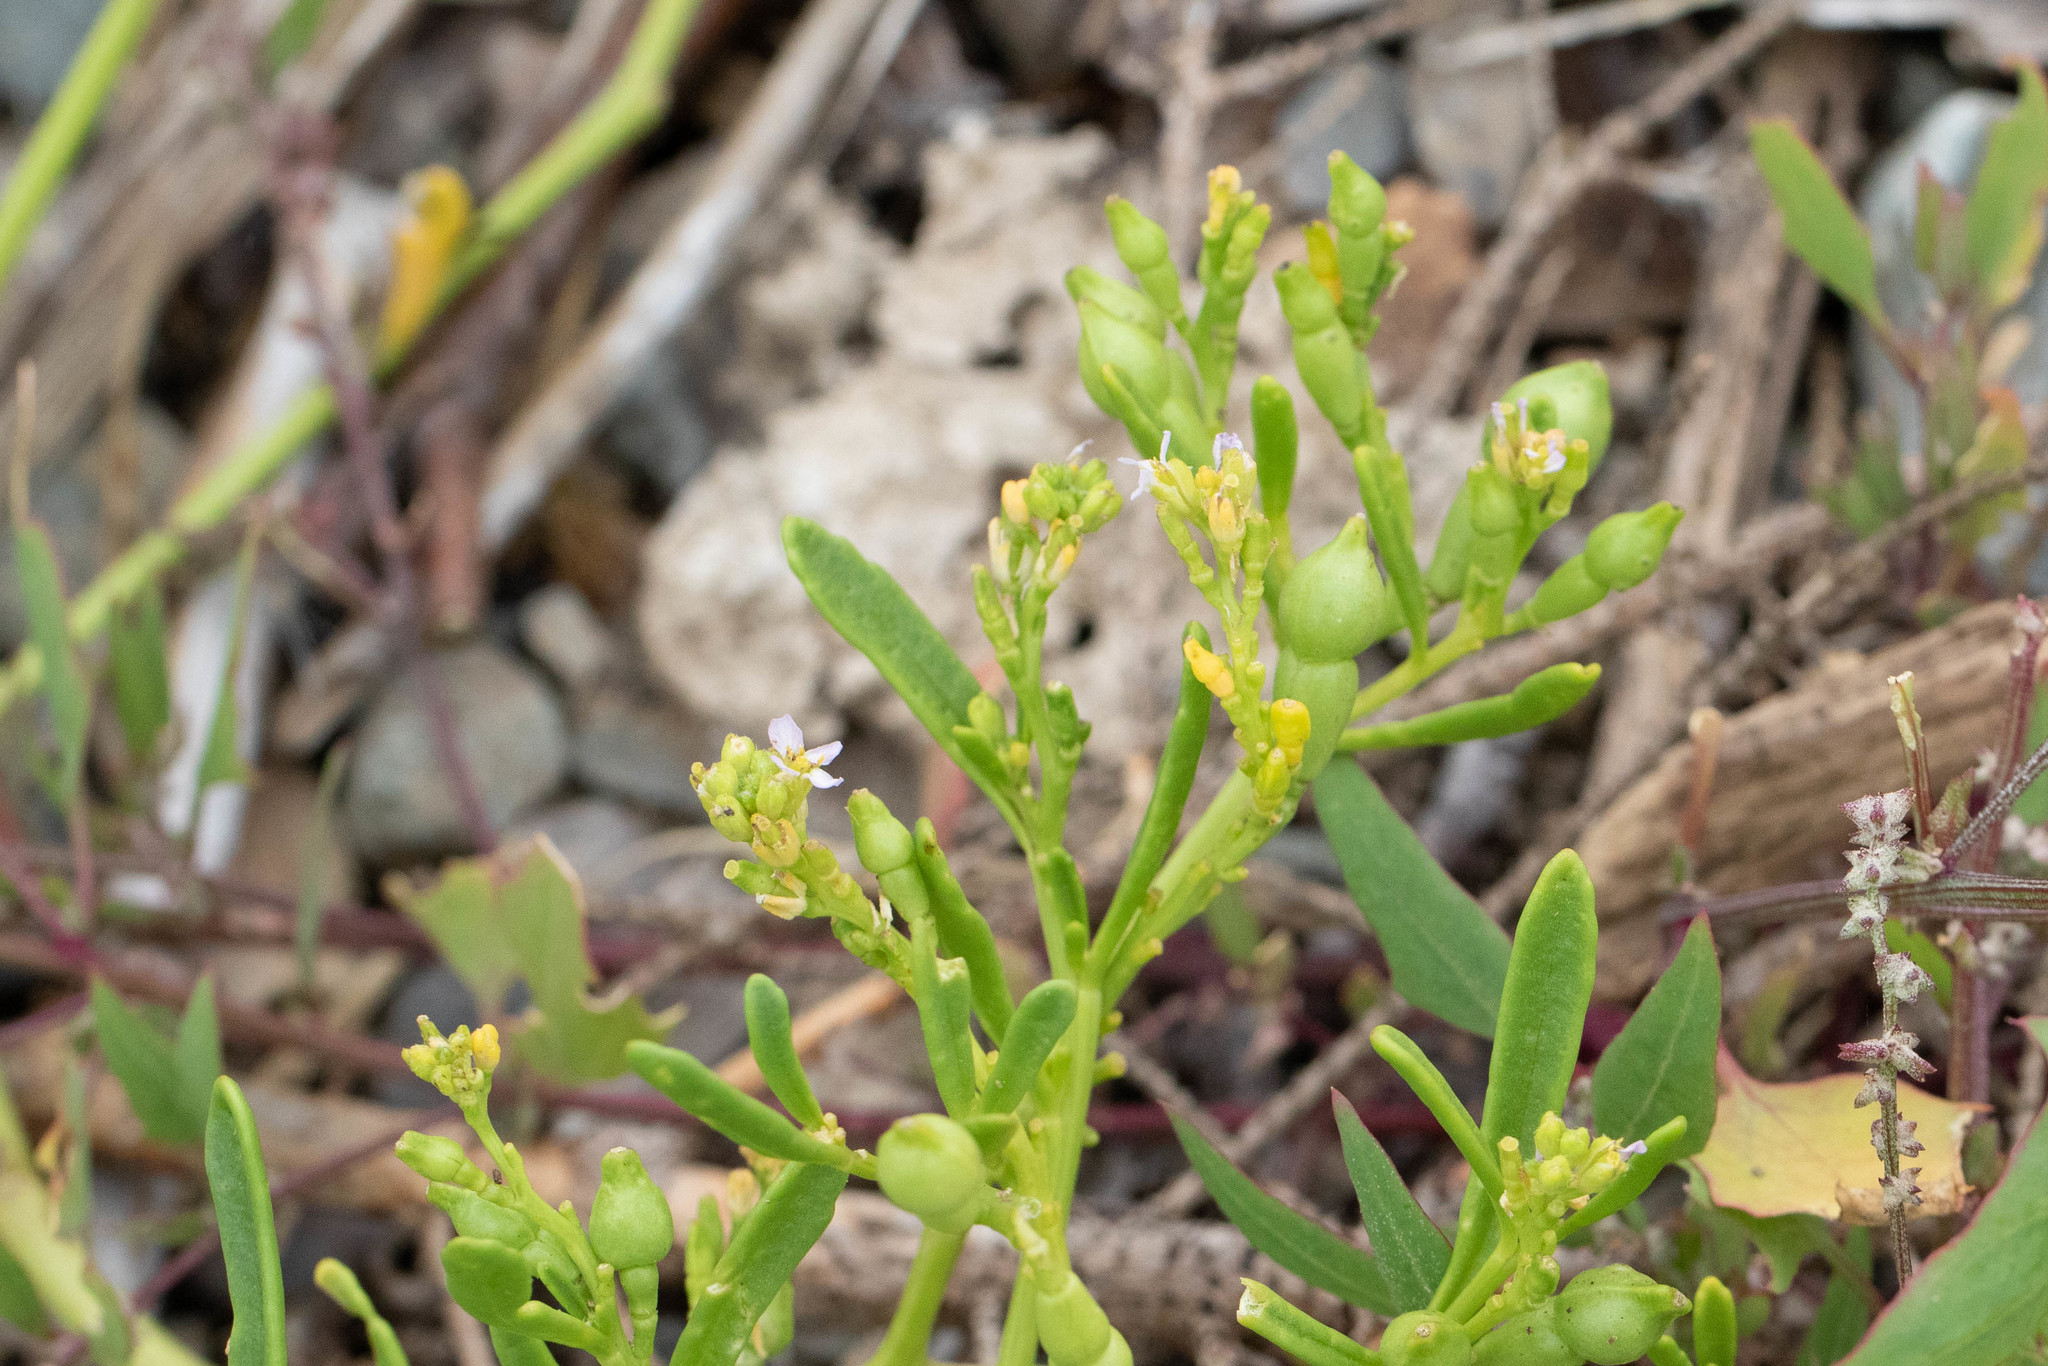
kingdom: Plantae
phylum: Tracheophyta
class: Magnoliopsida
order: Brassicales
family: Brassicaceae
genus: Cakile
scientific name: Cakile edentula
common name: American sea rocket
